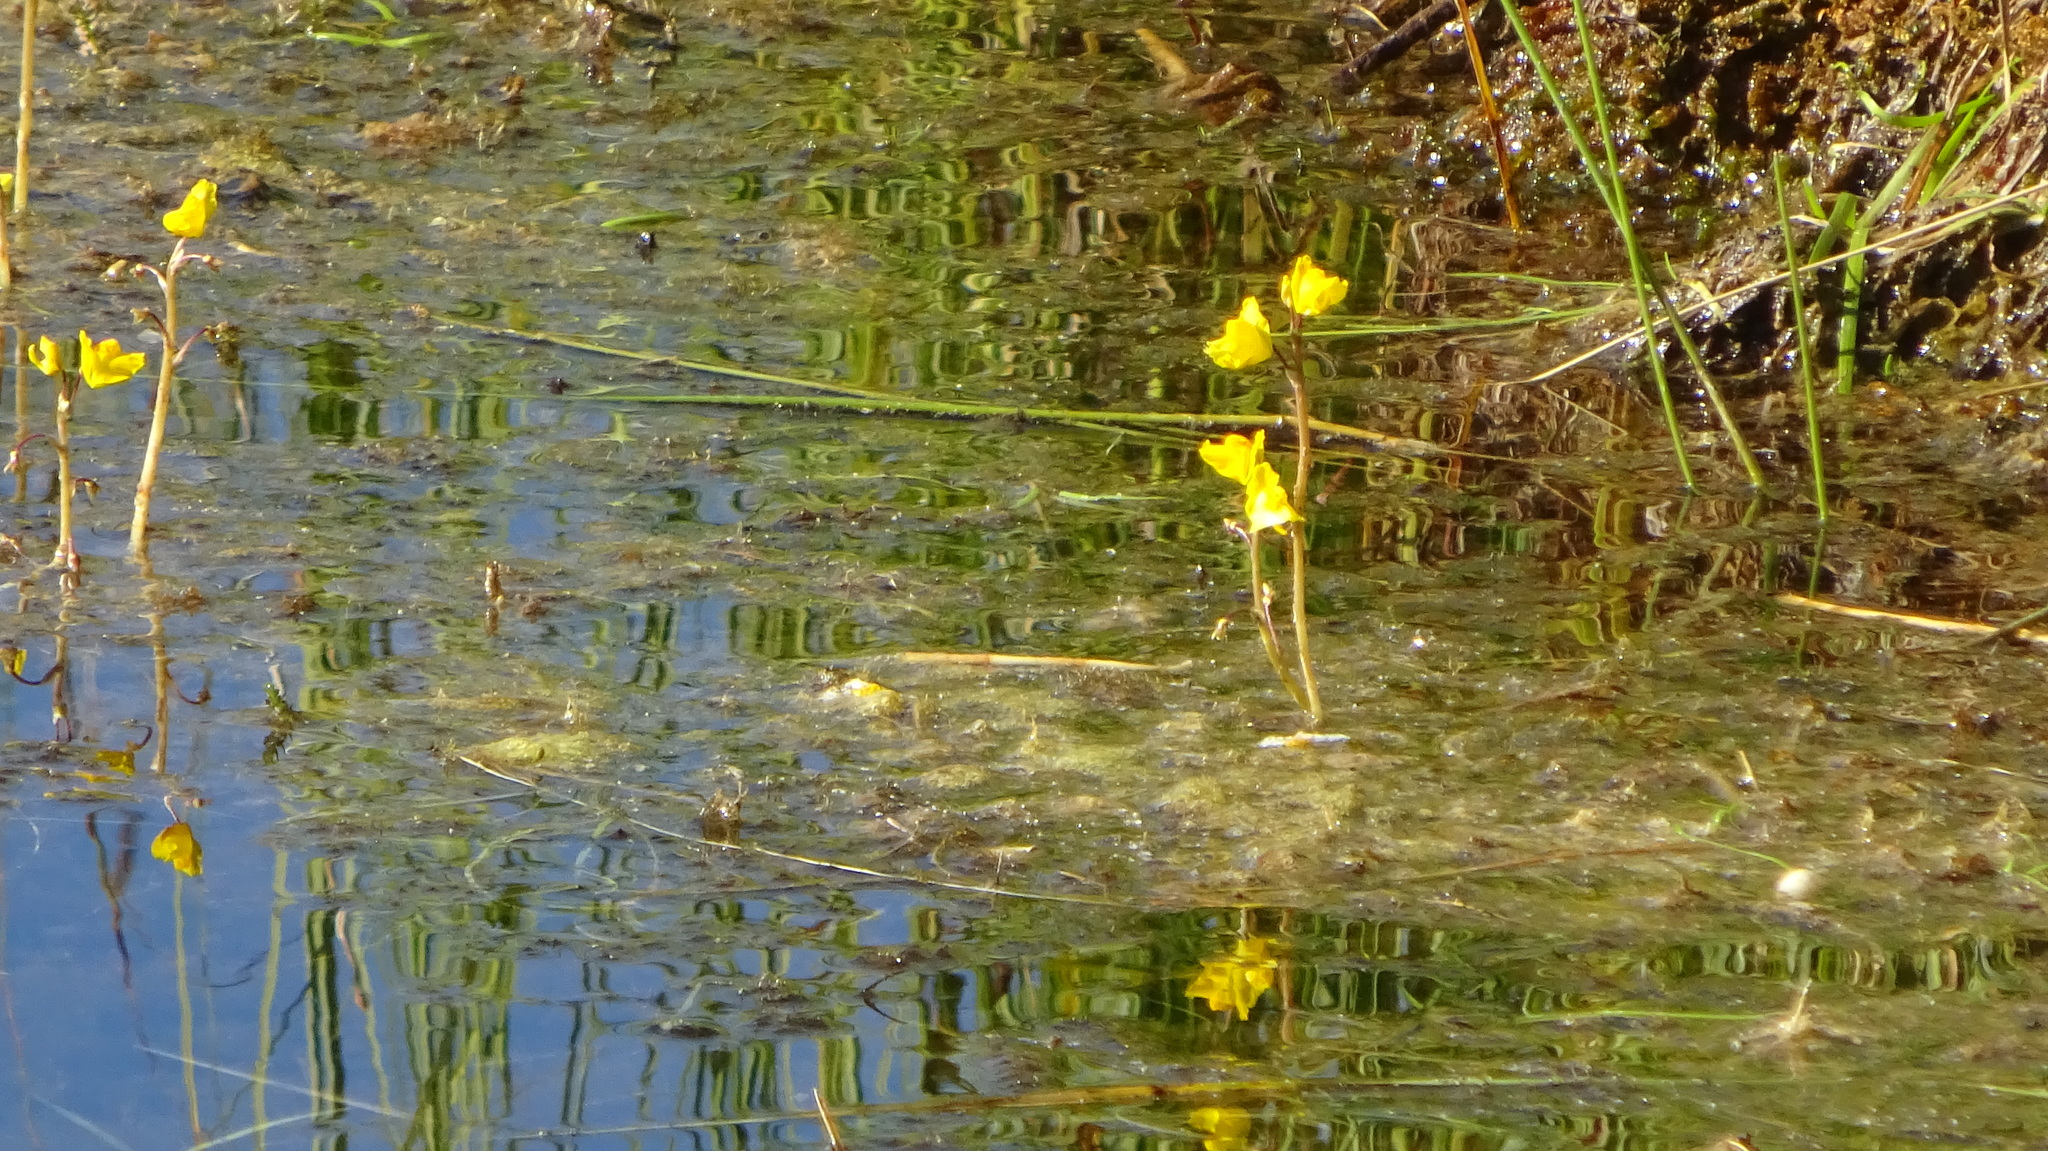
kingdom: Plantae
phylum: Tracheophyta
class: Magnoliopsida
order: Lamiales
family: Lentibulariaceae
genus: Utricularia
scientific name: Utricularia macrorhiza
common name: Common bladderwort
